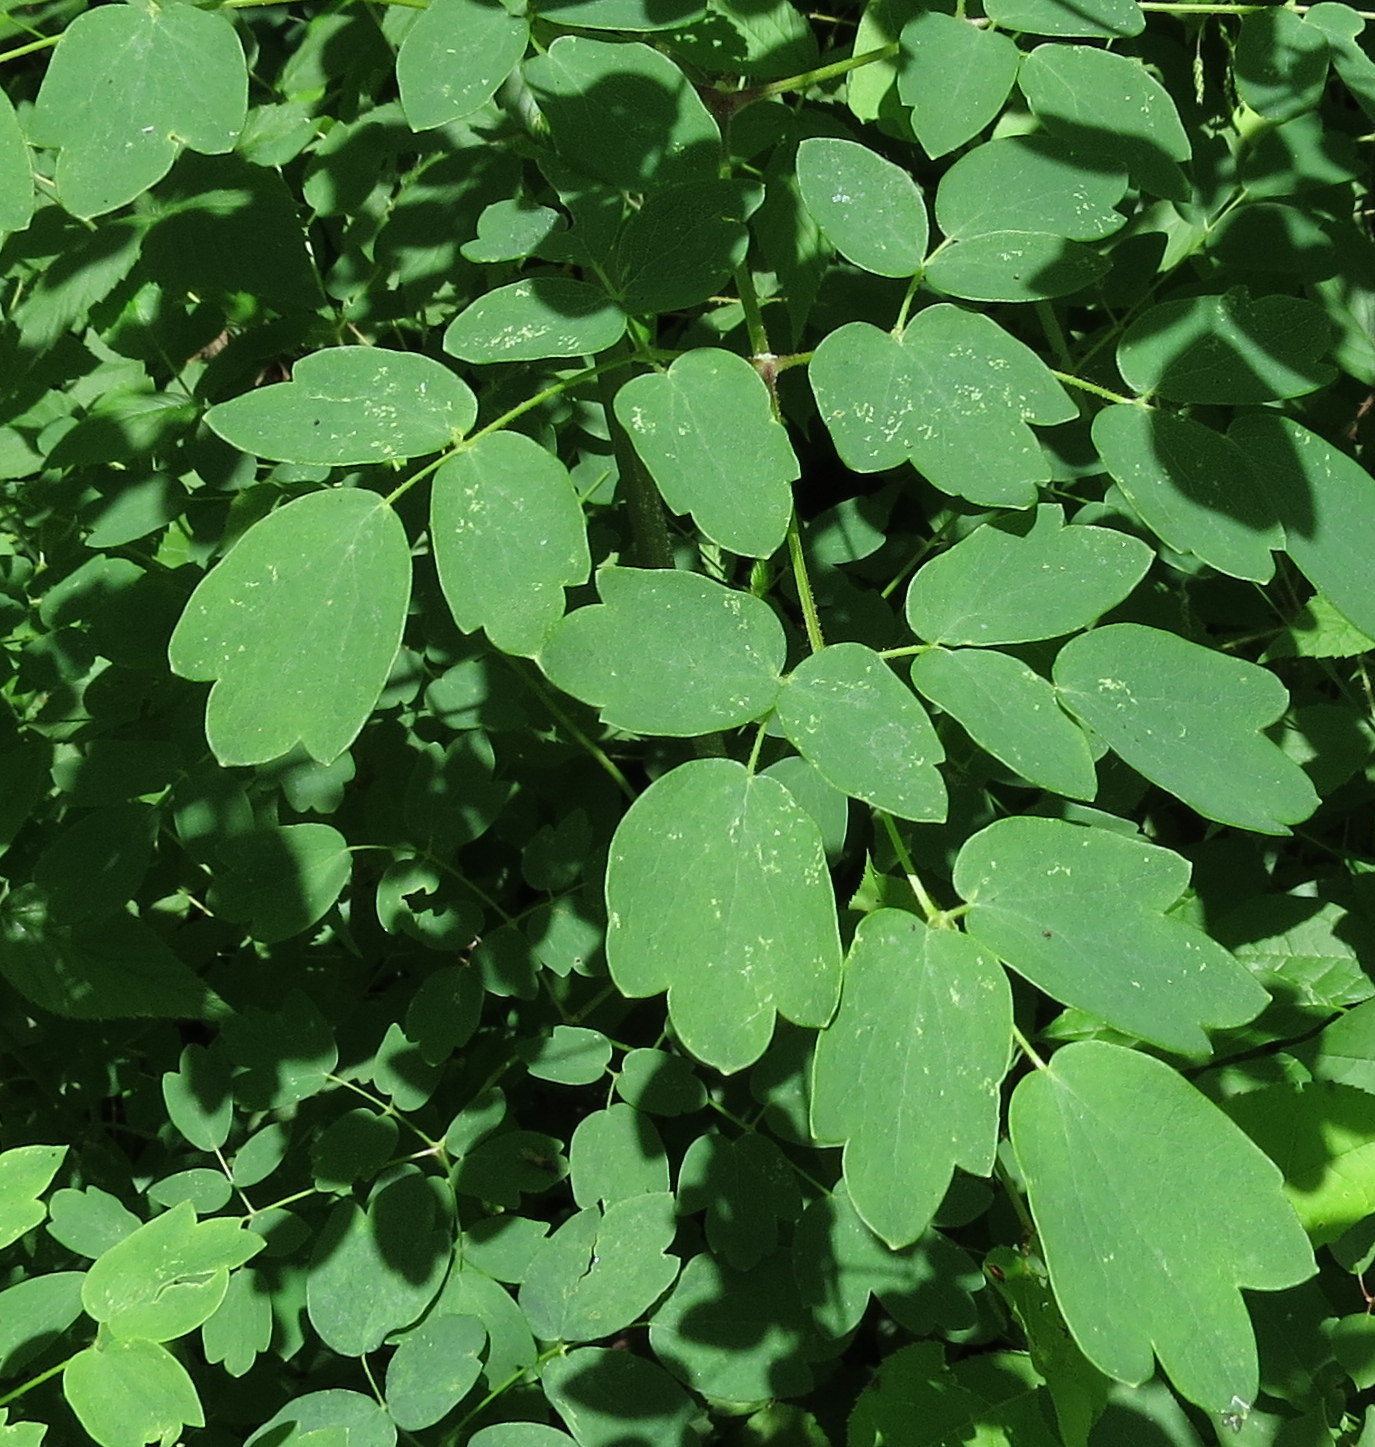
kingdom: Plantae
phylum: Tracheophyta
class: Magnoliopsida
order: Ranunculales
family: Ranunculaceae
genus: Thalictrum
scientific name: Thalictrum dasycarpum
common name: Purple meadow-rue
